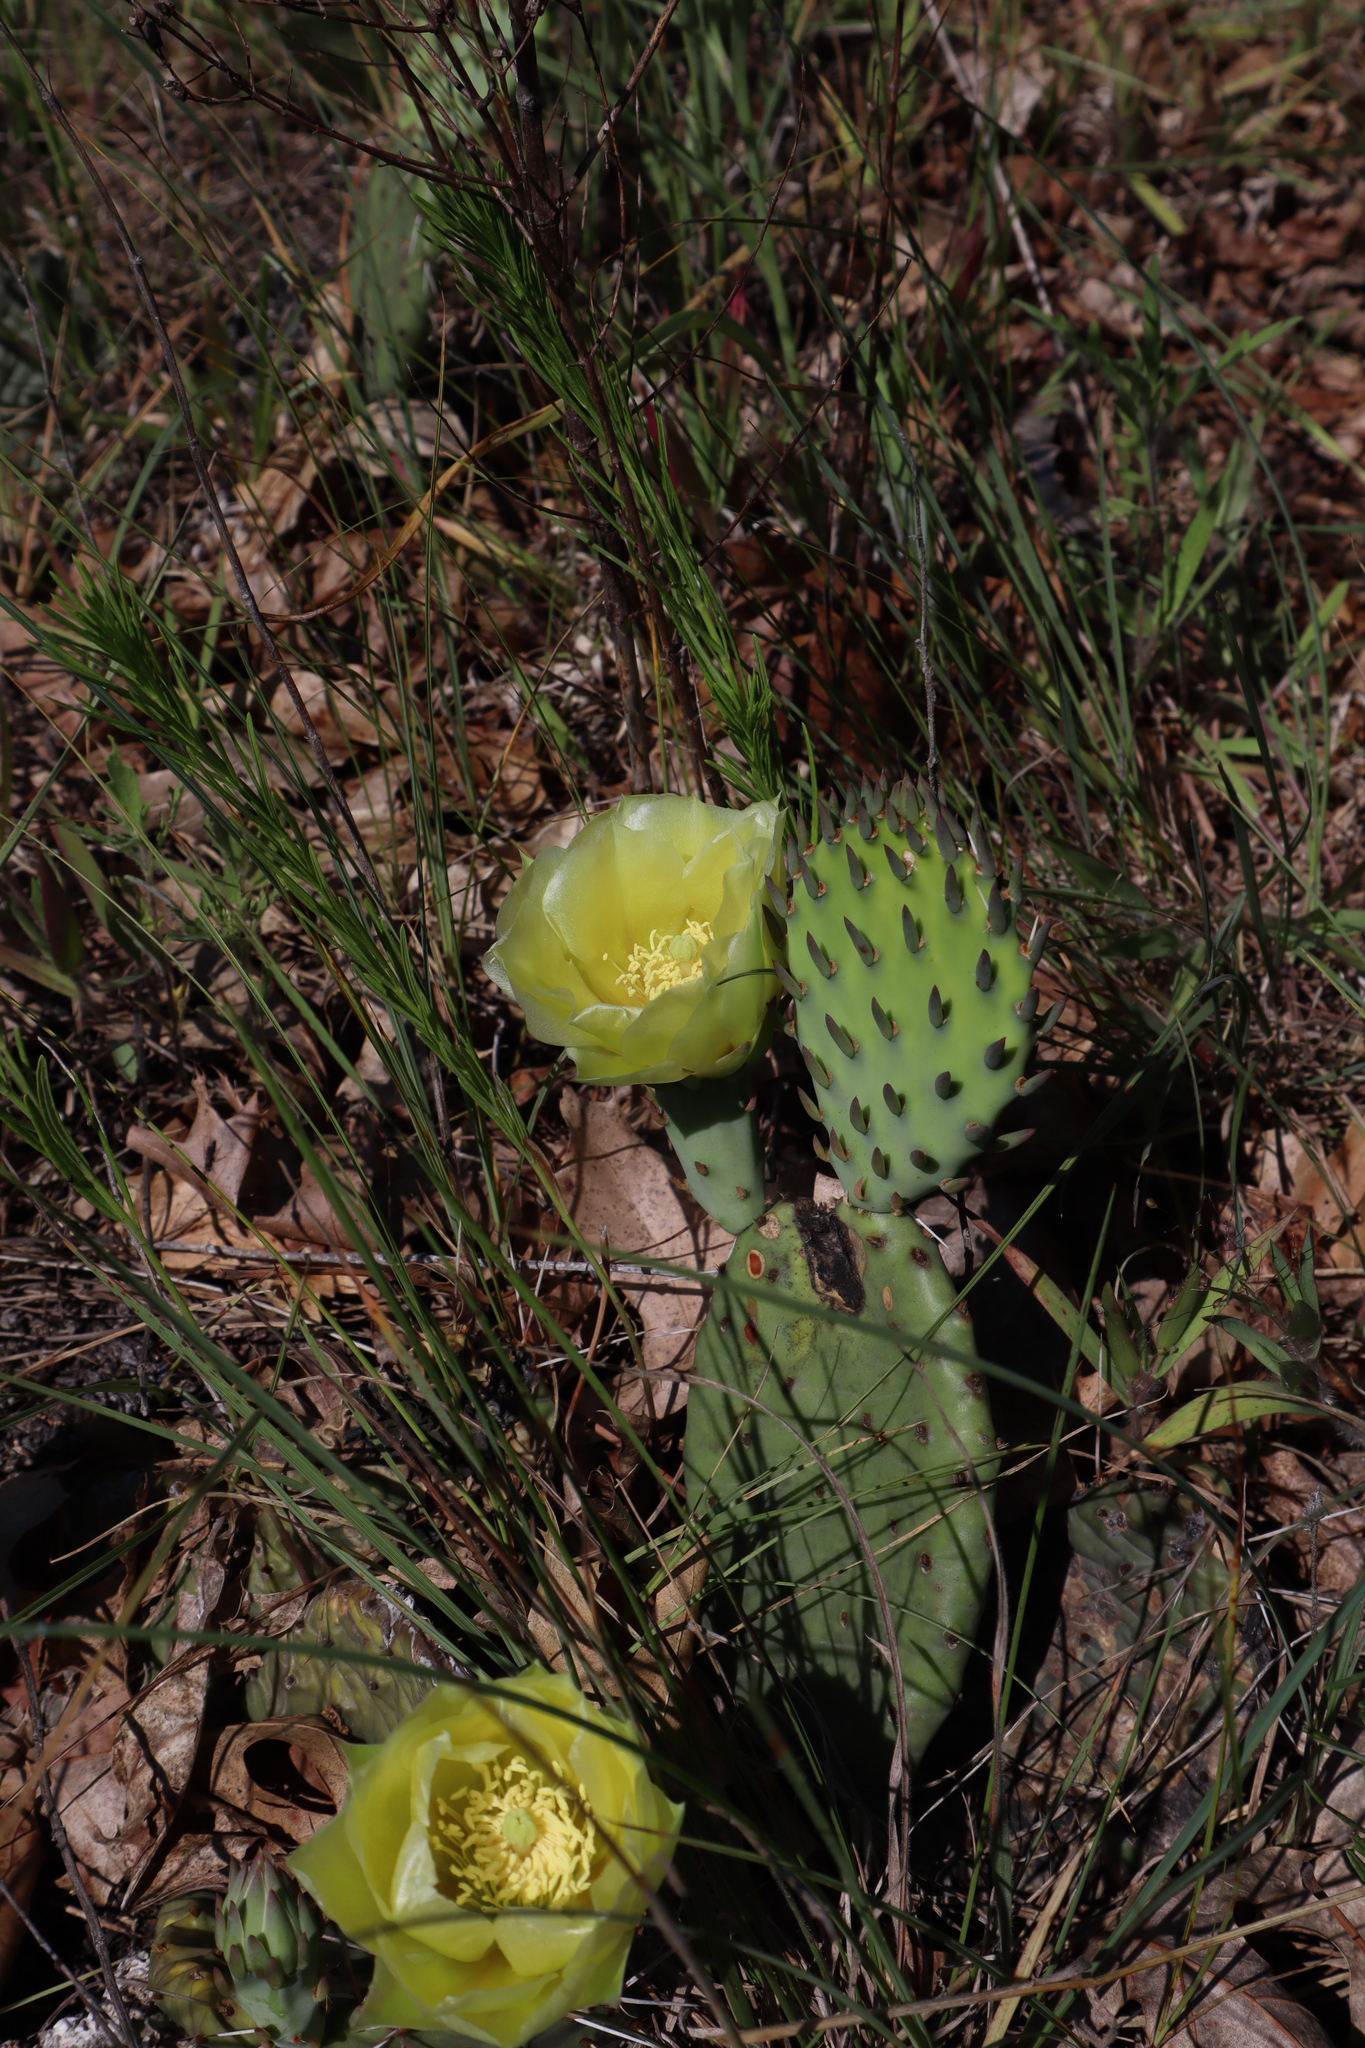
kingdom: Plantae
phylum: Tracheophyta
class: Magnoliopsida
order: Caryophyllales
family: Cactaceae
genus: Opuntia
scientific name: Opuntia humifusa
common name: Eastern prickly-pear
